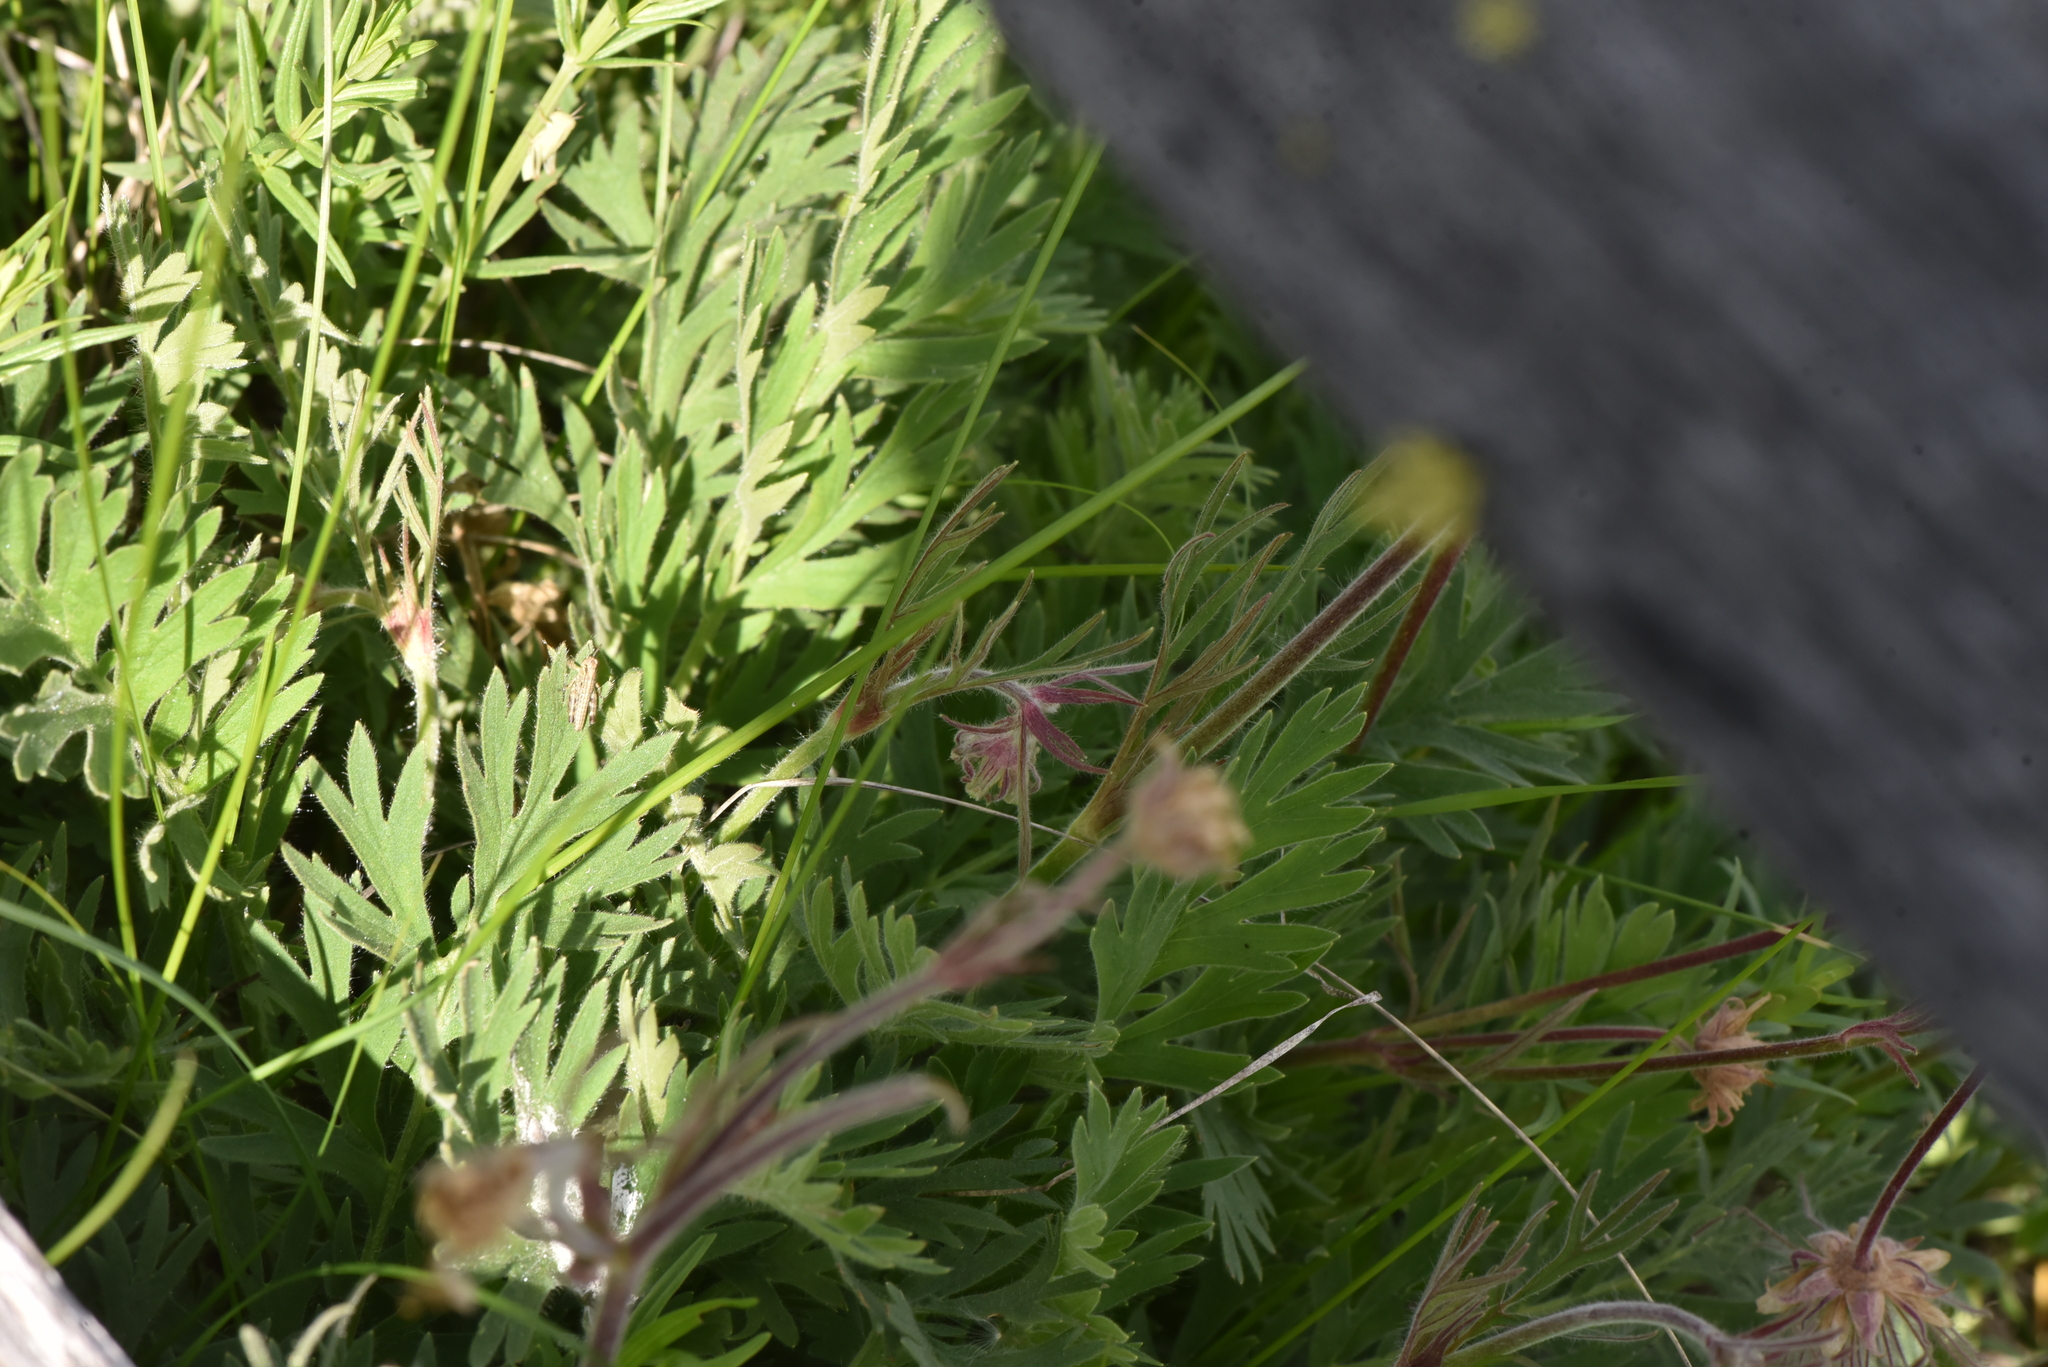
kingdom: Plantae
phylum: Tracheophyta
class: Magnoliopsida
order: Rosales
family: Rosaceae
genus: Geum
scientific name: Geum triflorum
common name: Old man's whiskers
